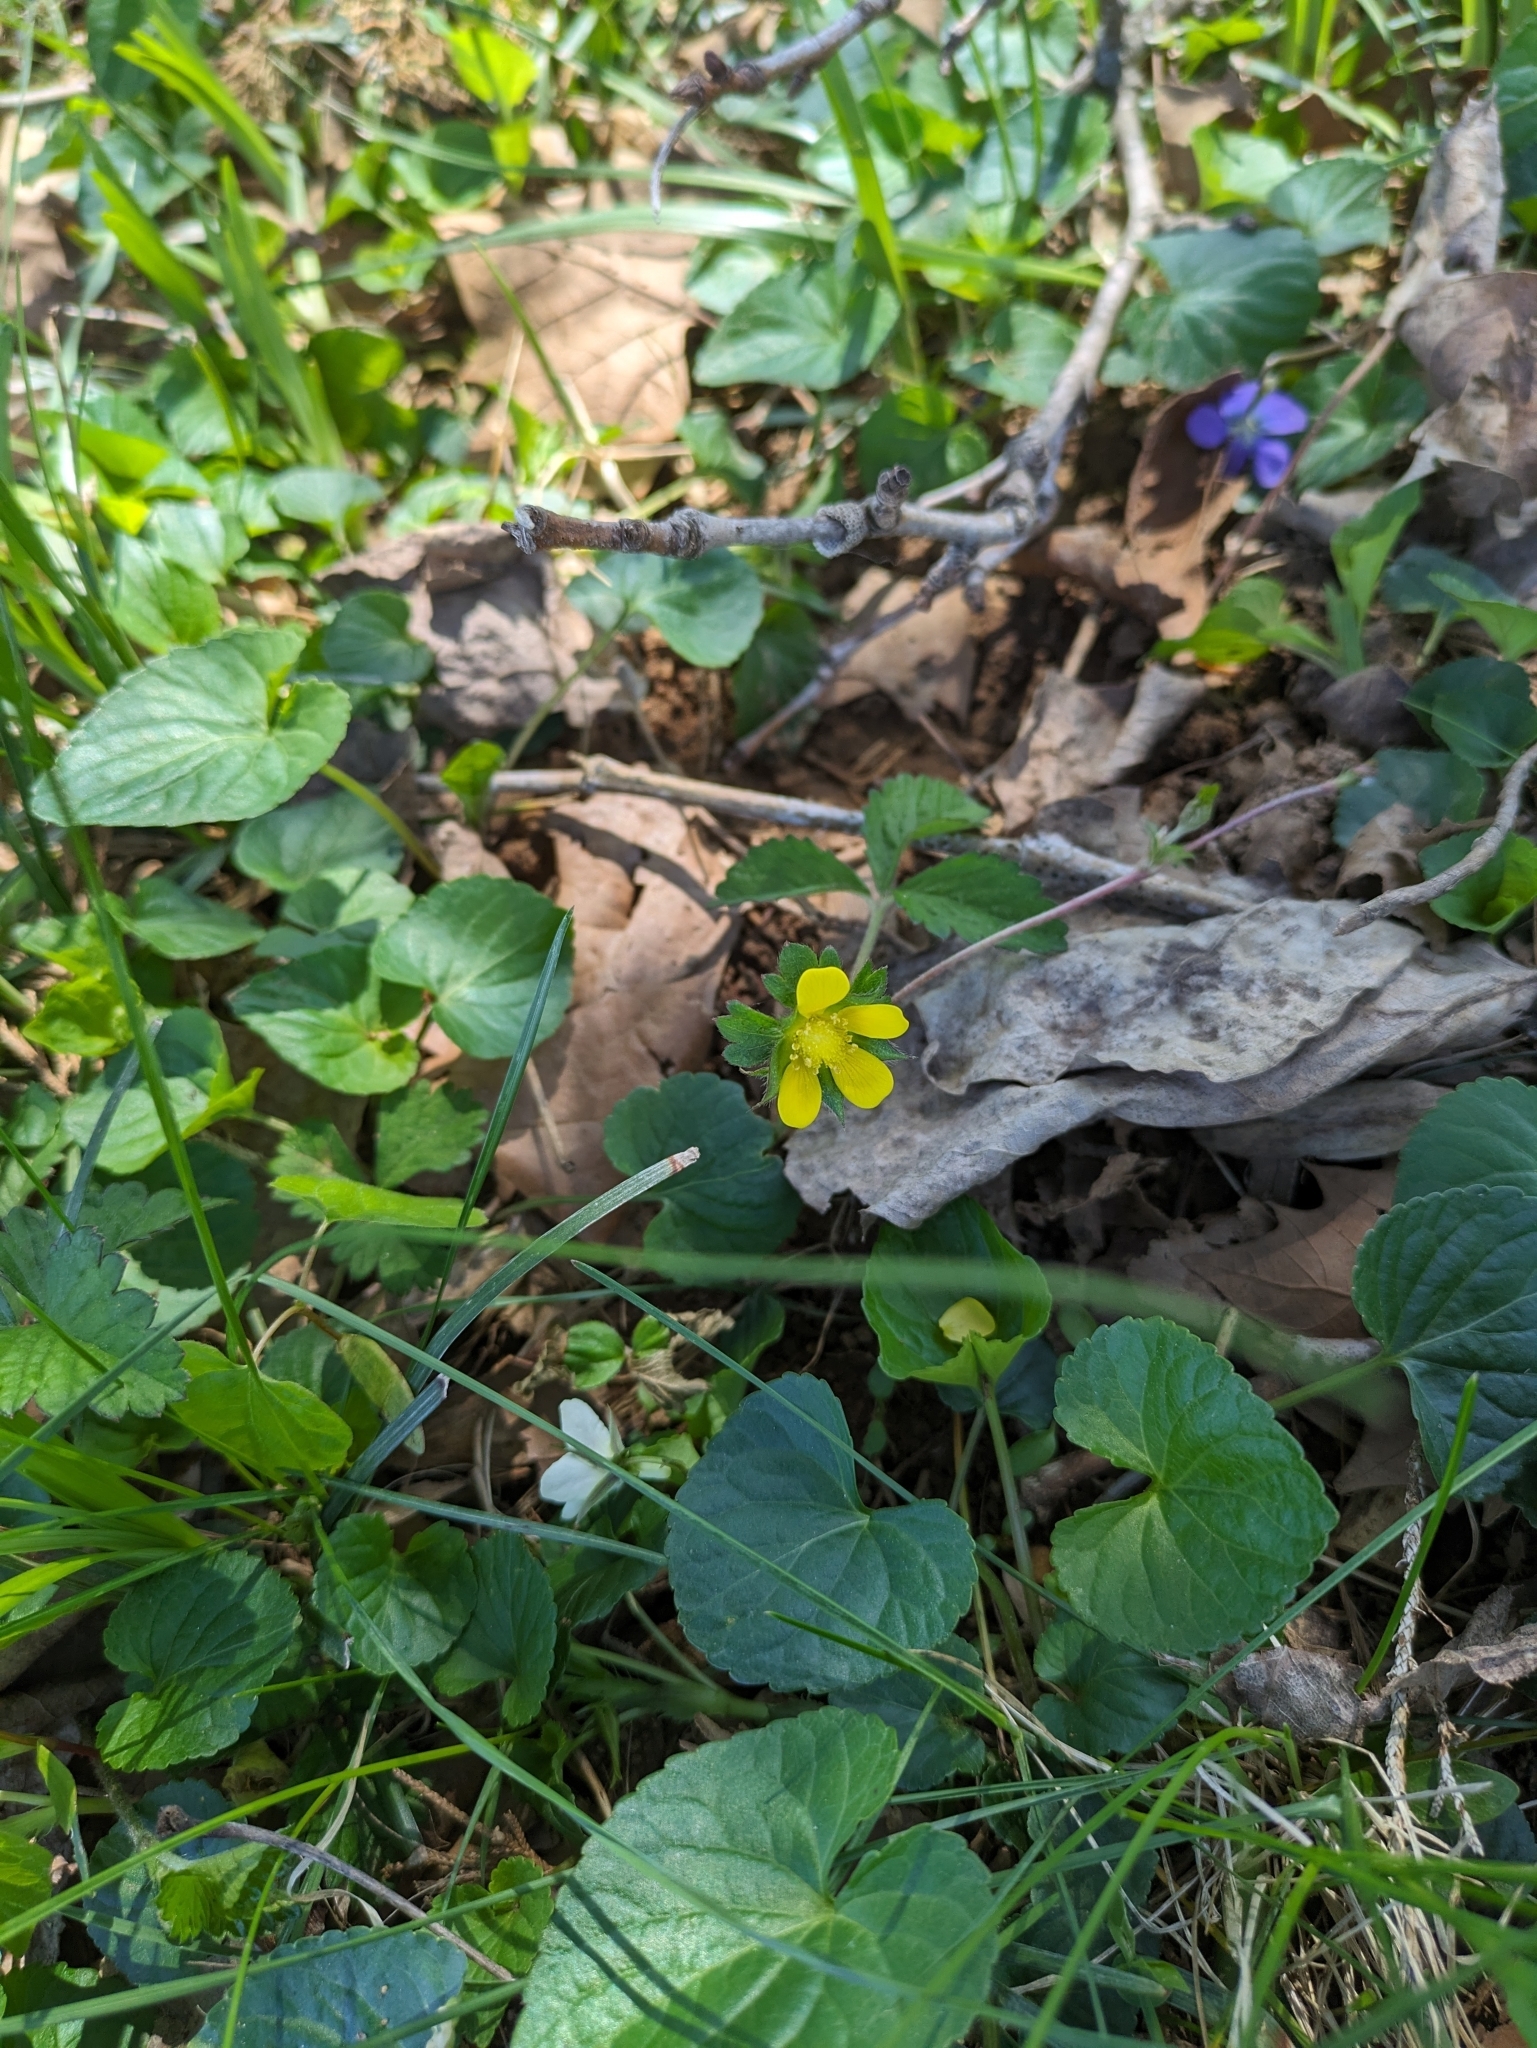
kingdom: Plantae
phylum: Tracheophyta
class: Magnoliopsida
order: Rosales
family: Rosaceae
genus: Potentilla
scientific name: Potentilla indica
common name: Yellow-flowered strawberry
